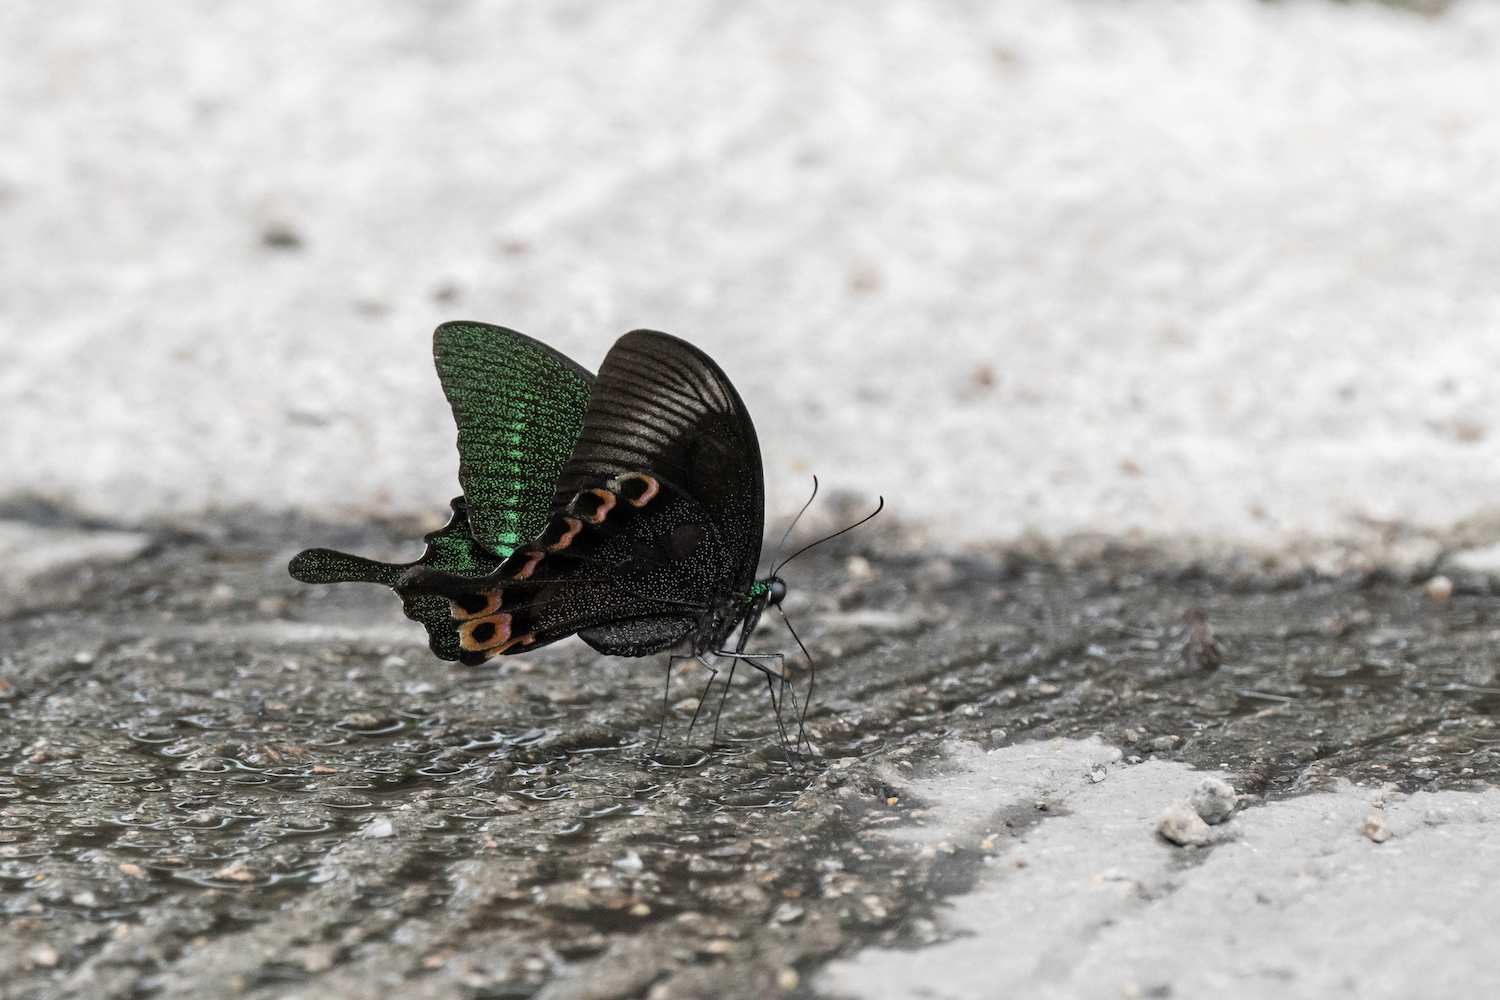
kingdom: Animalia
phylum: Arthropoda
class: Insecta
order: Lepidoptera
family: Papilionidae
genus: Papilio
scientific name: Papilio paris
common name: Paris peacock
